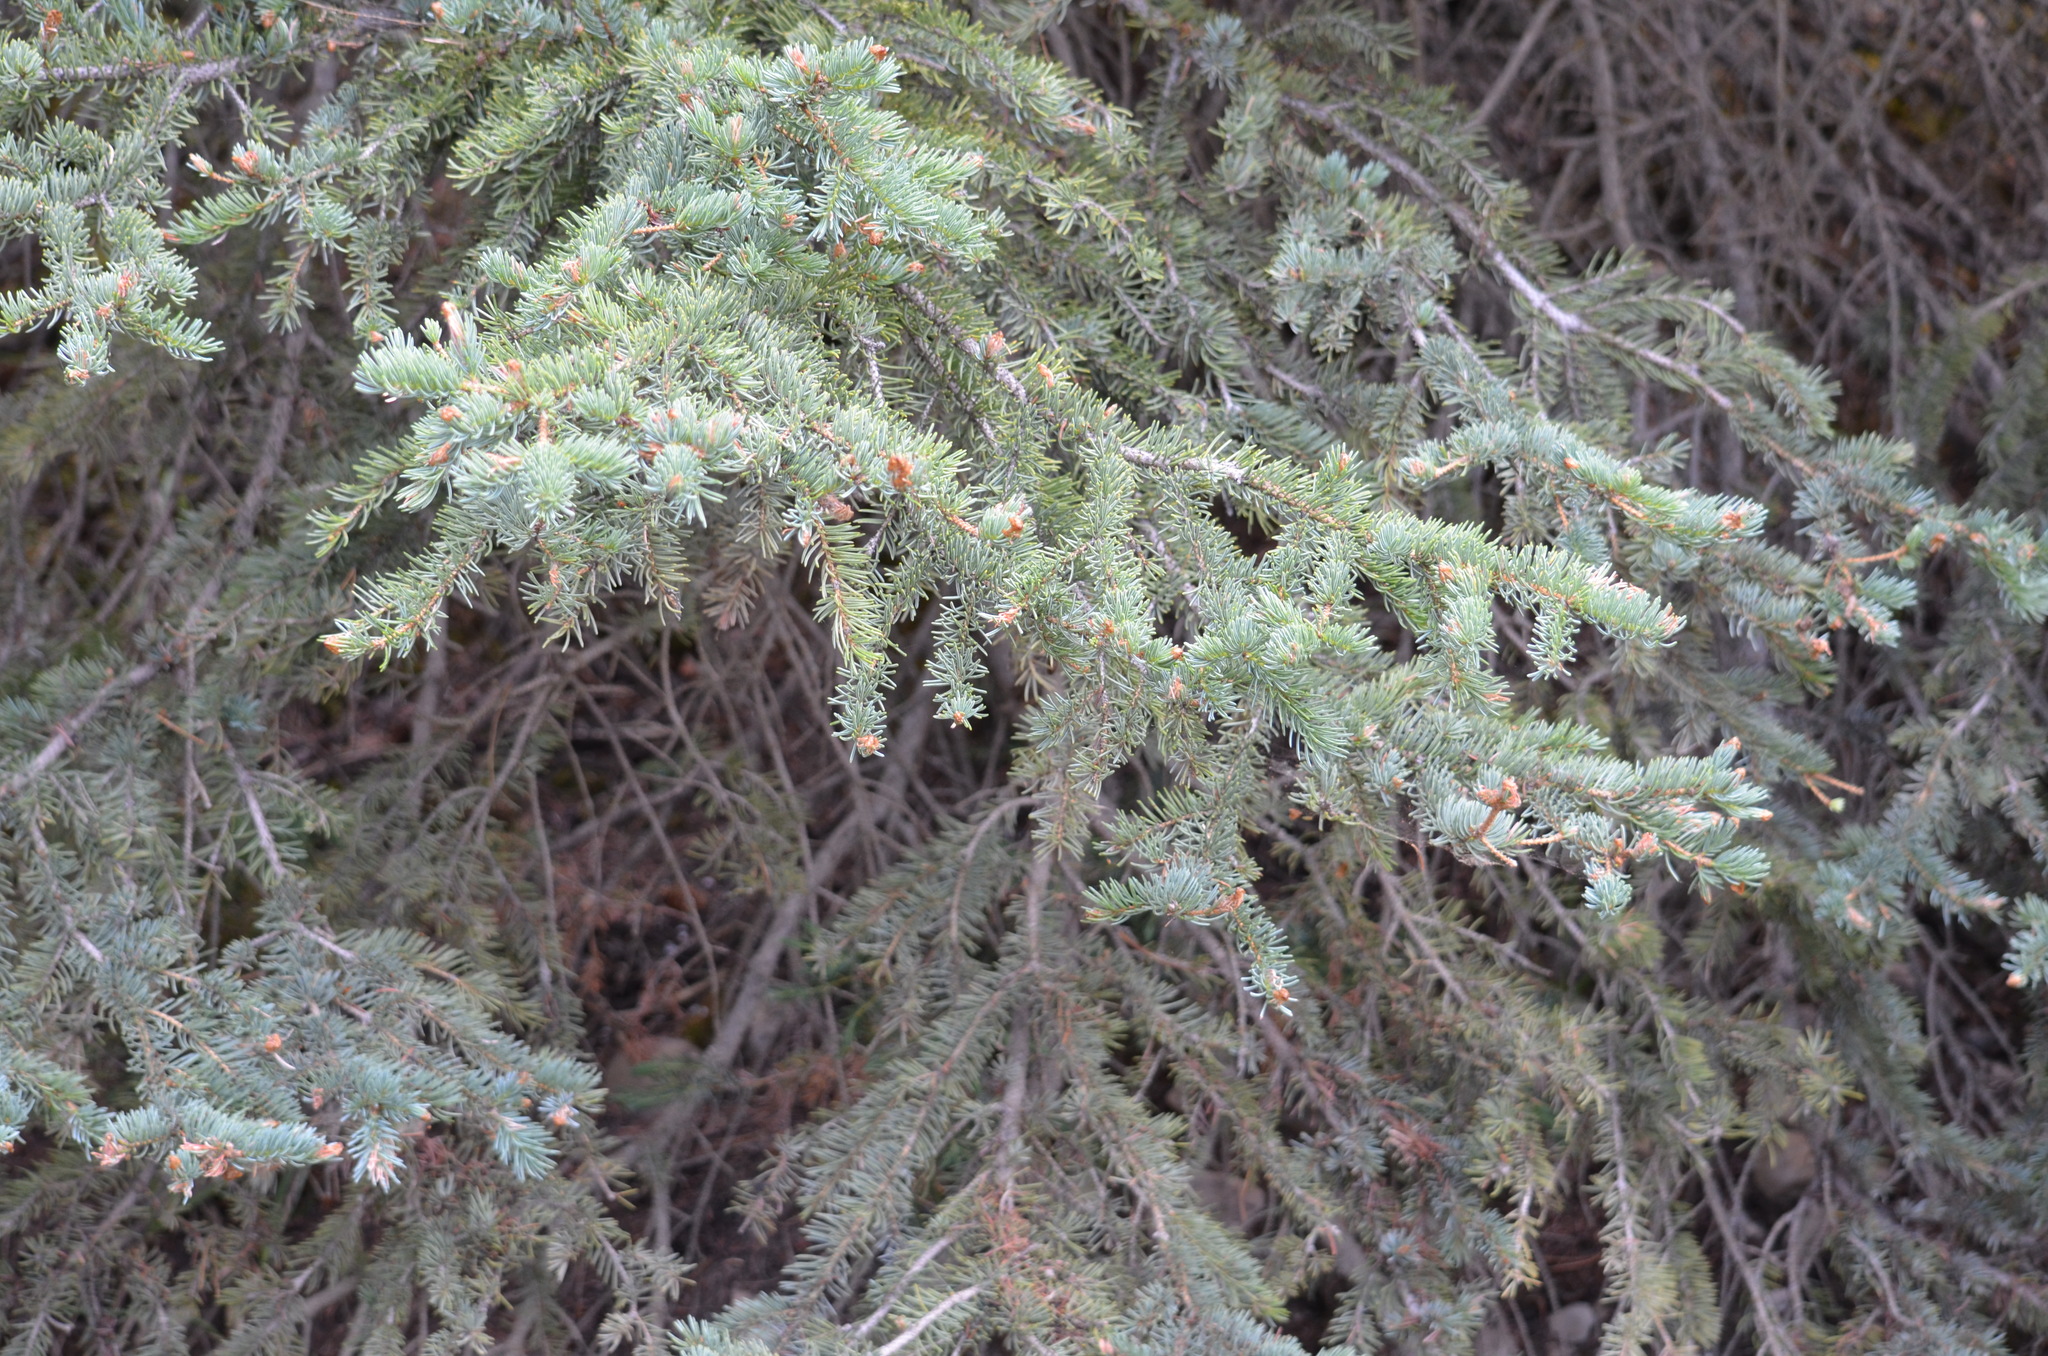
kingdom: Plantae
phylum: Tracheophyta
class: Pinopsida
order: Pinales
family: Pinaceae
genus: Picea
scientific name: Picea glauca
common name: White spruce
